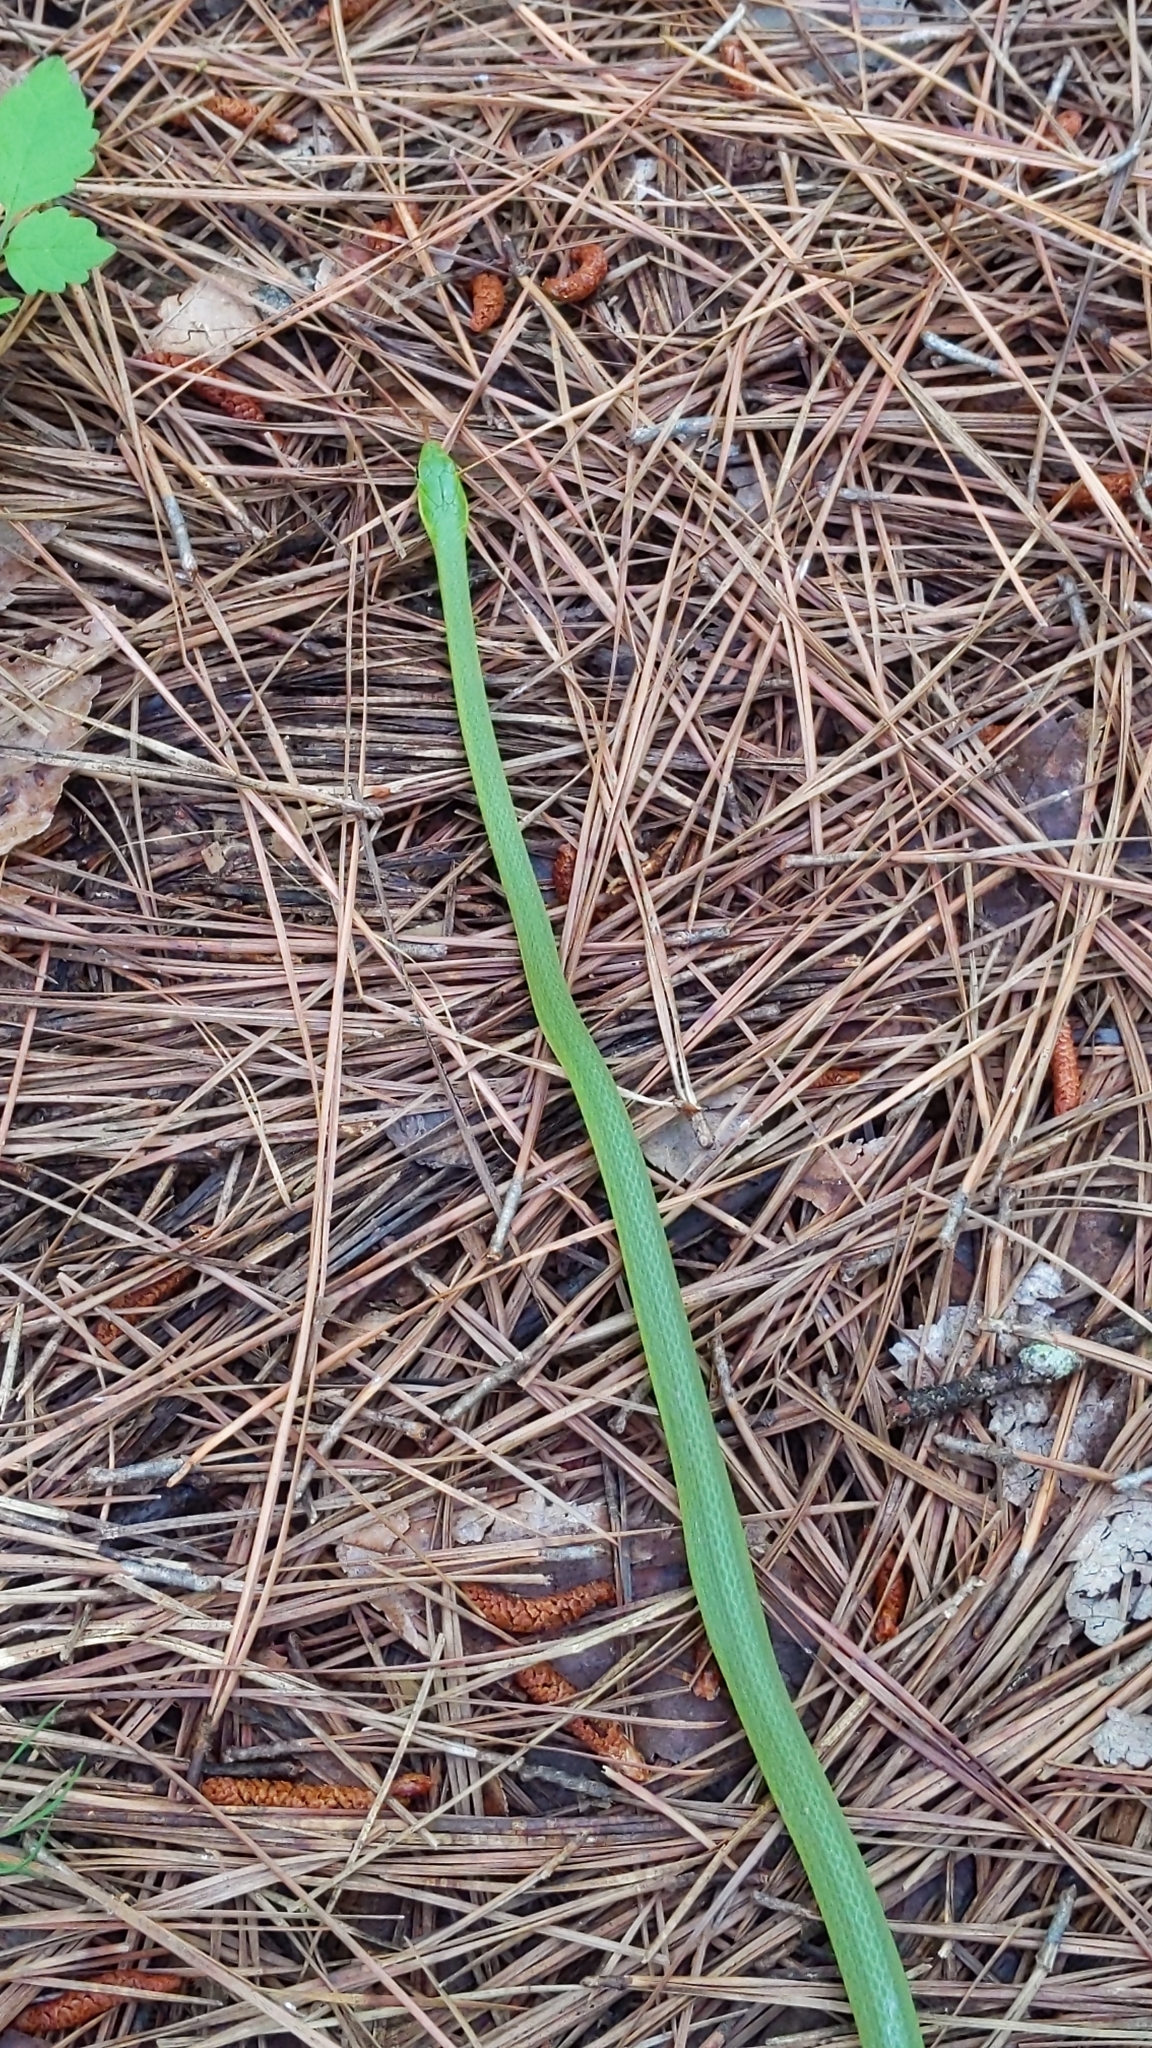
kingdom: Animalia
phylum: Chordata
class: Squamata
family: Colubridae
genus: Opheodrys
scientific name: Opheodrys aestivus
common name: Rough greensnake
